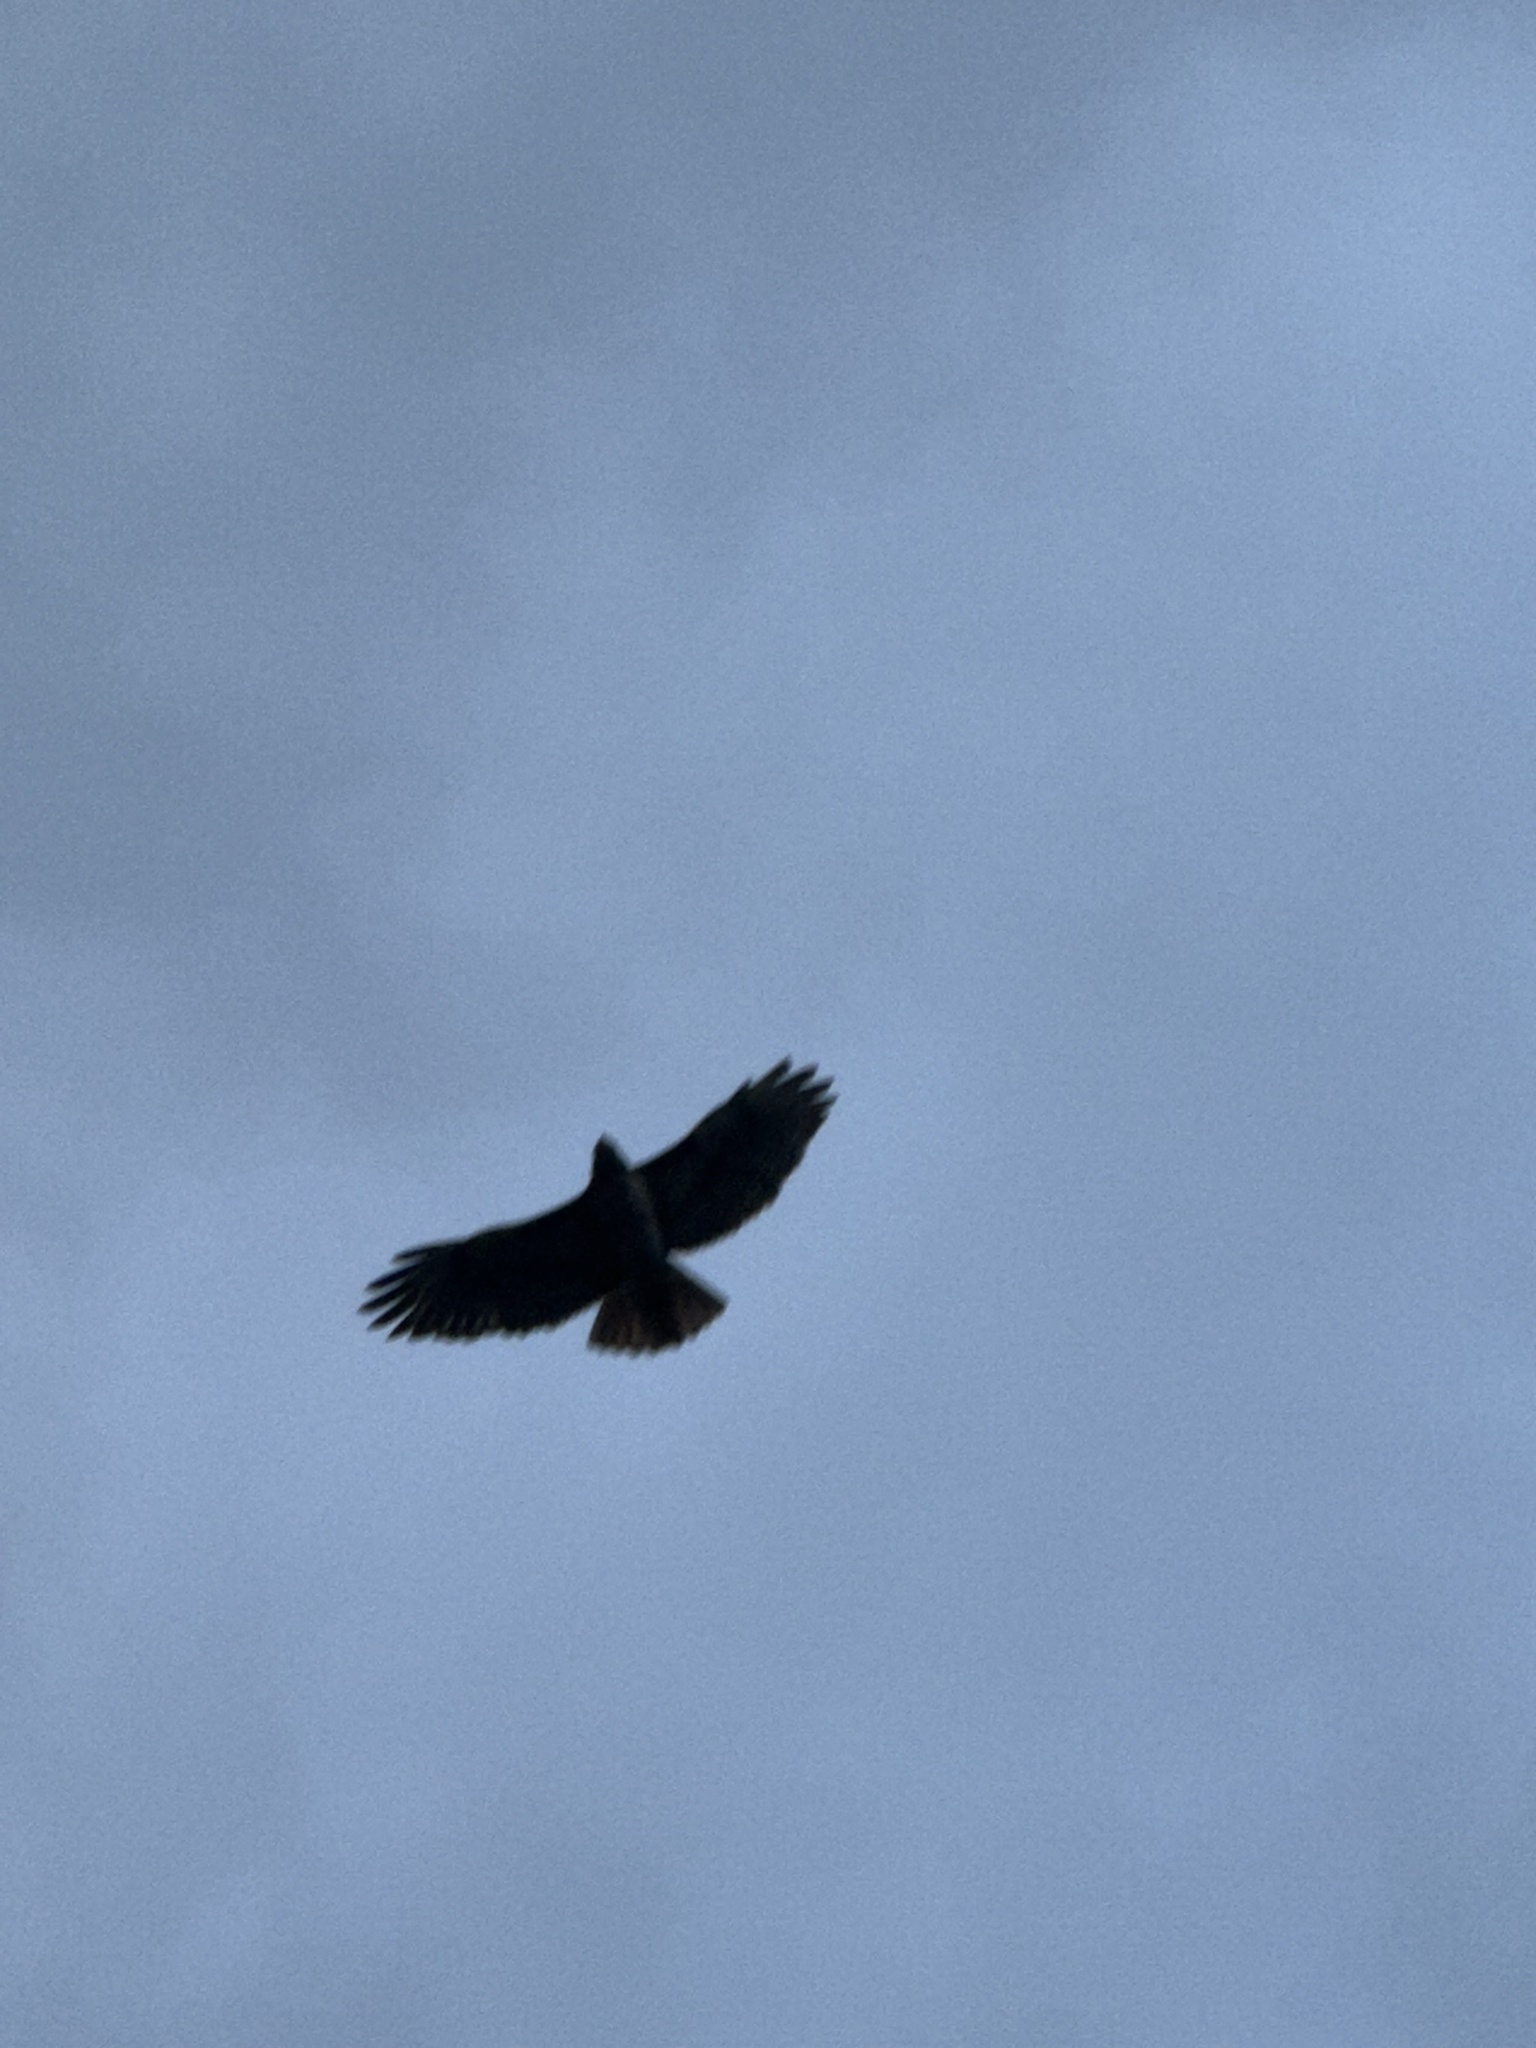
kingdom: Animalia
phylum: Chordata
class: Aves
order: Accipitriformes
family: Accipitridae
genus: Buteo
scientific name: Buteo jamaicensis
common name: Red-tailed hawk
